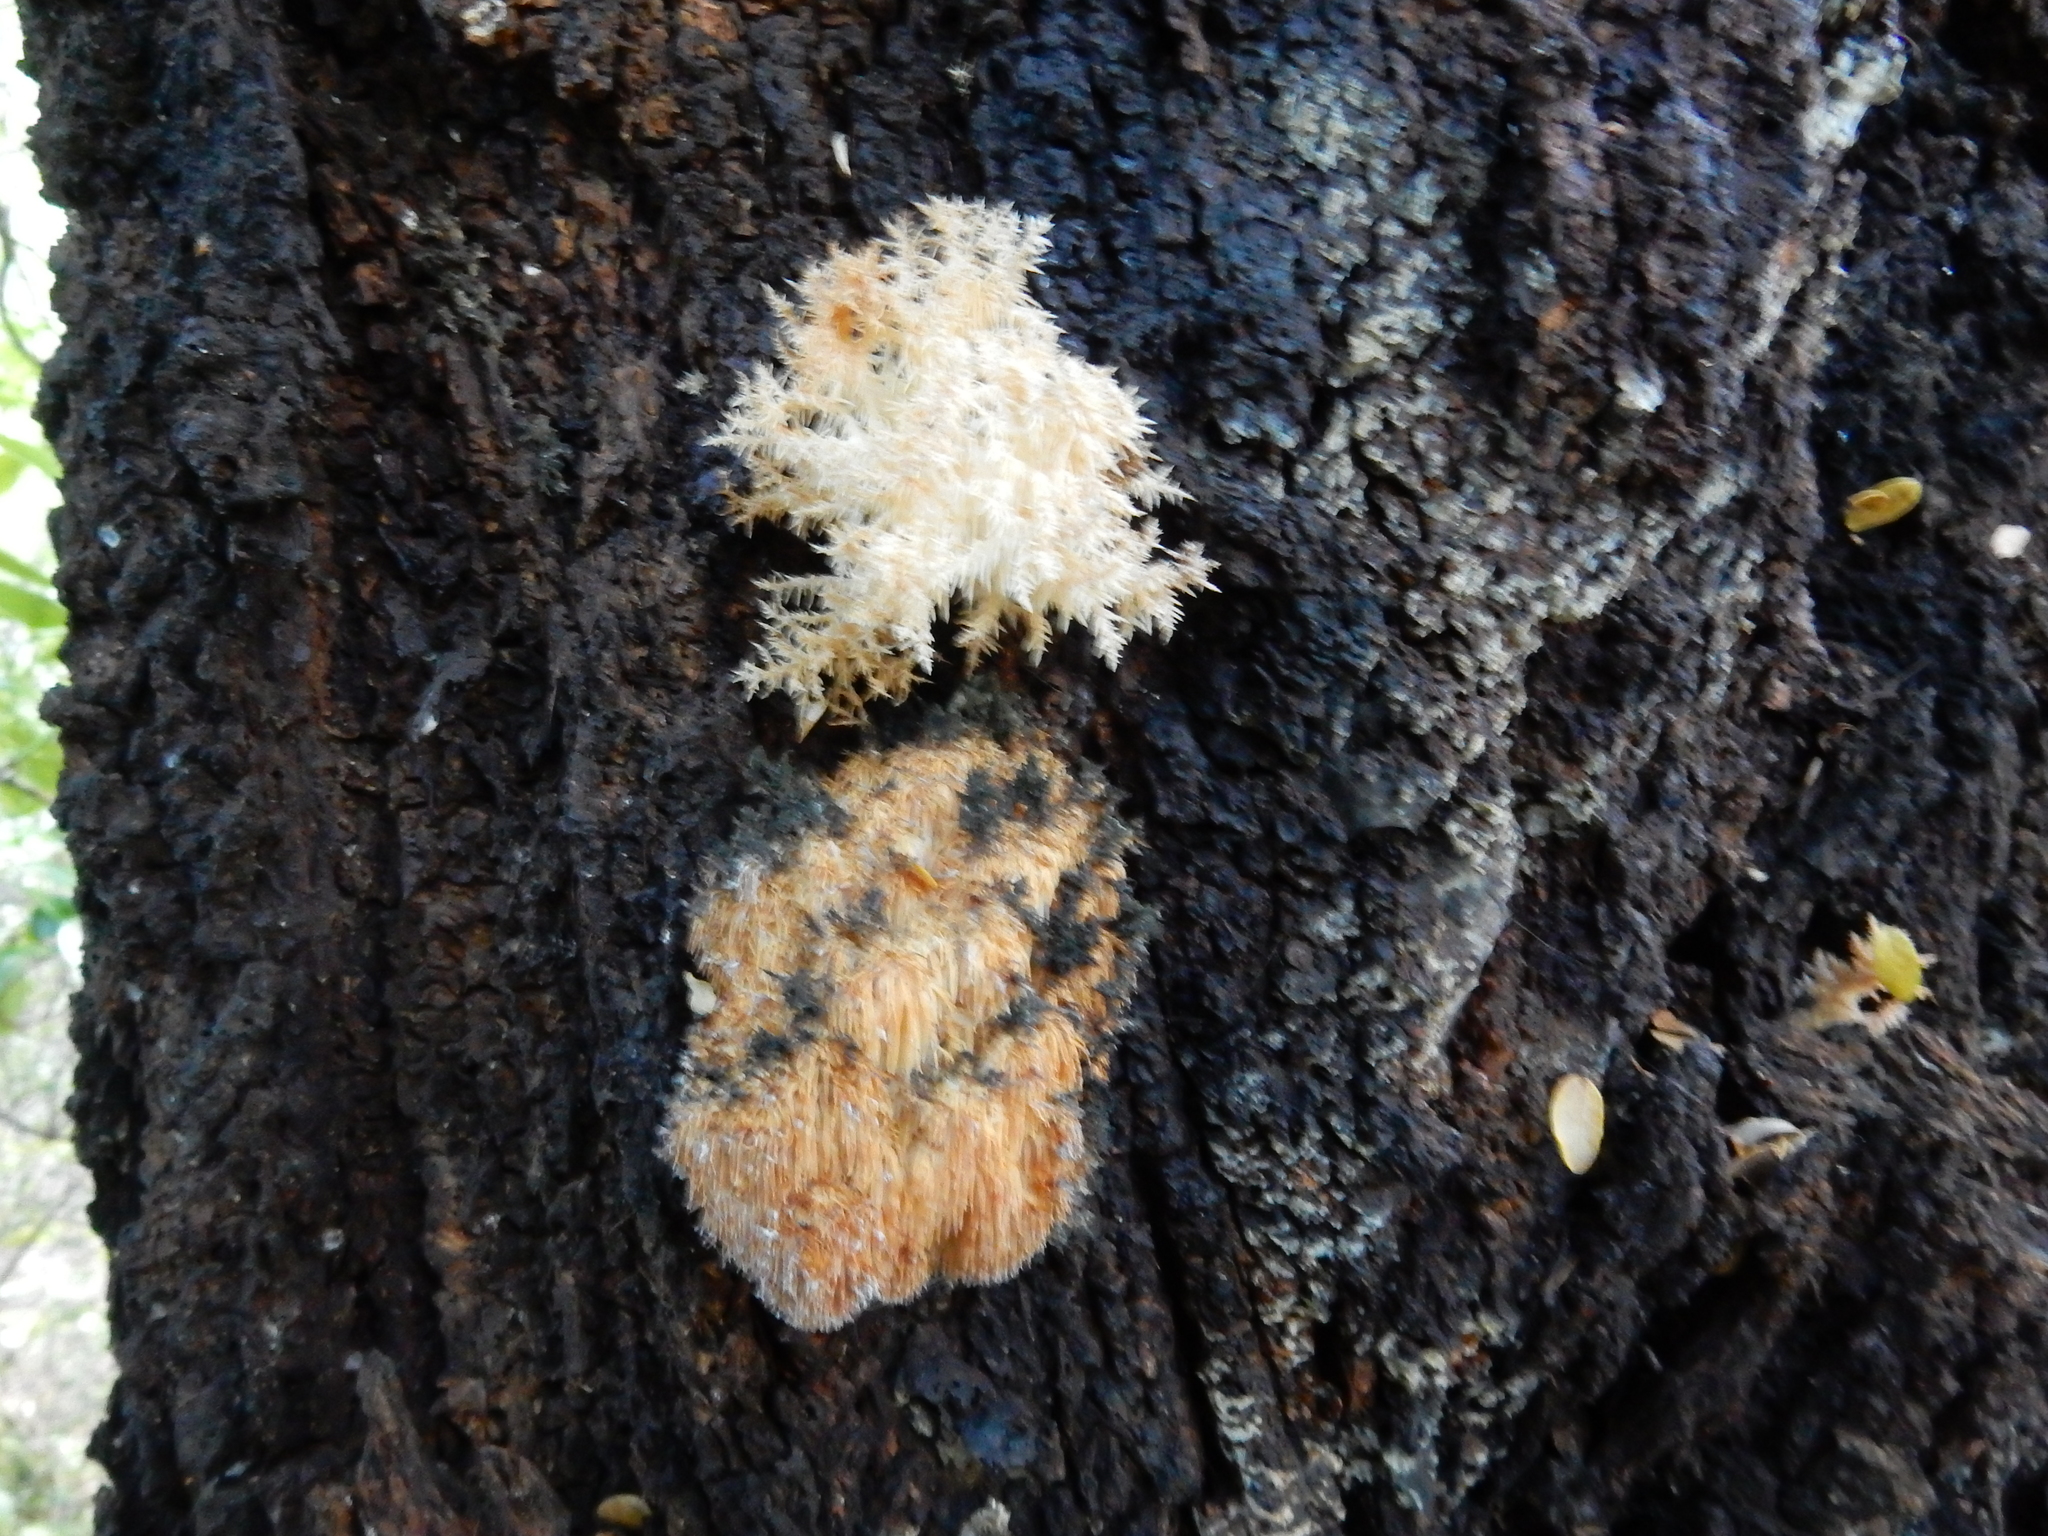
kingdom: Fungi
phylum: Basidiomycota
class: Agaricomycetes
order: Russulales
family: Hericiaceae
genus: Hericium
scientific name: Hericium novae-zealandiae
